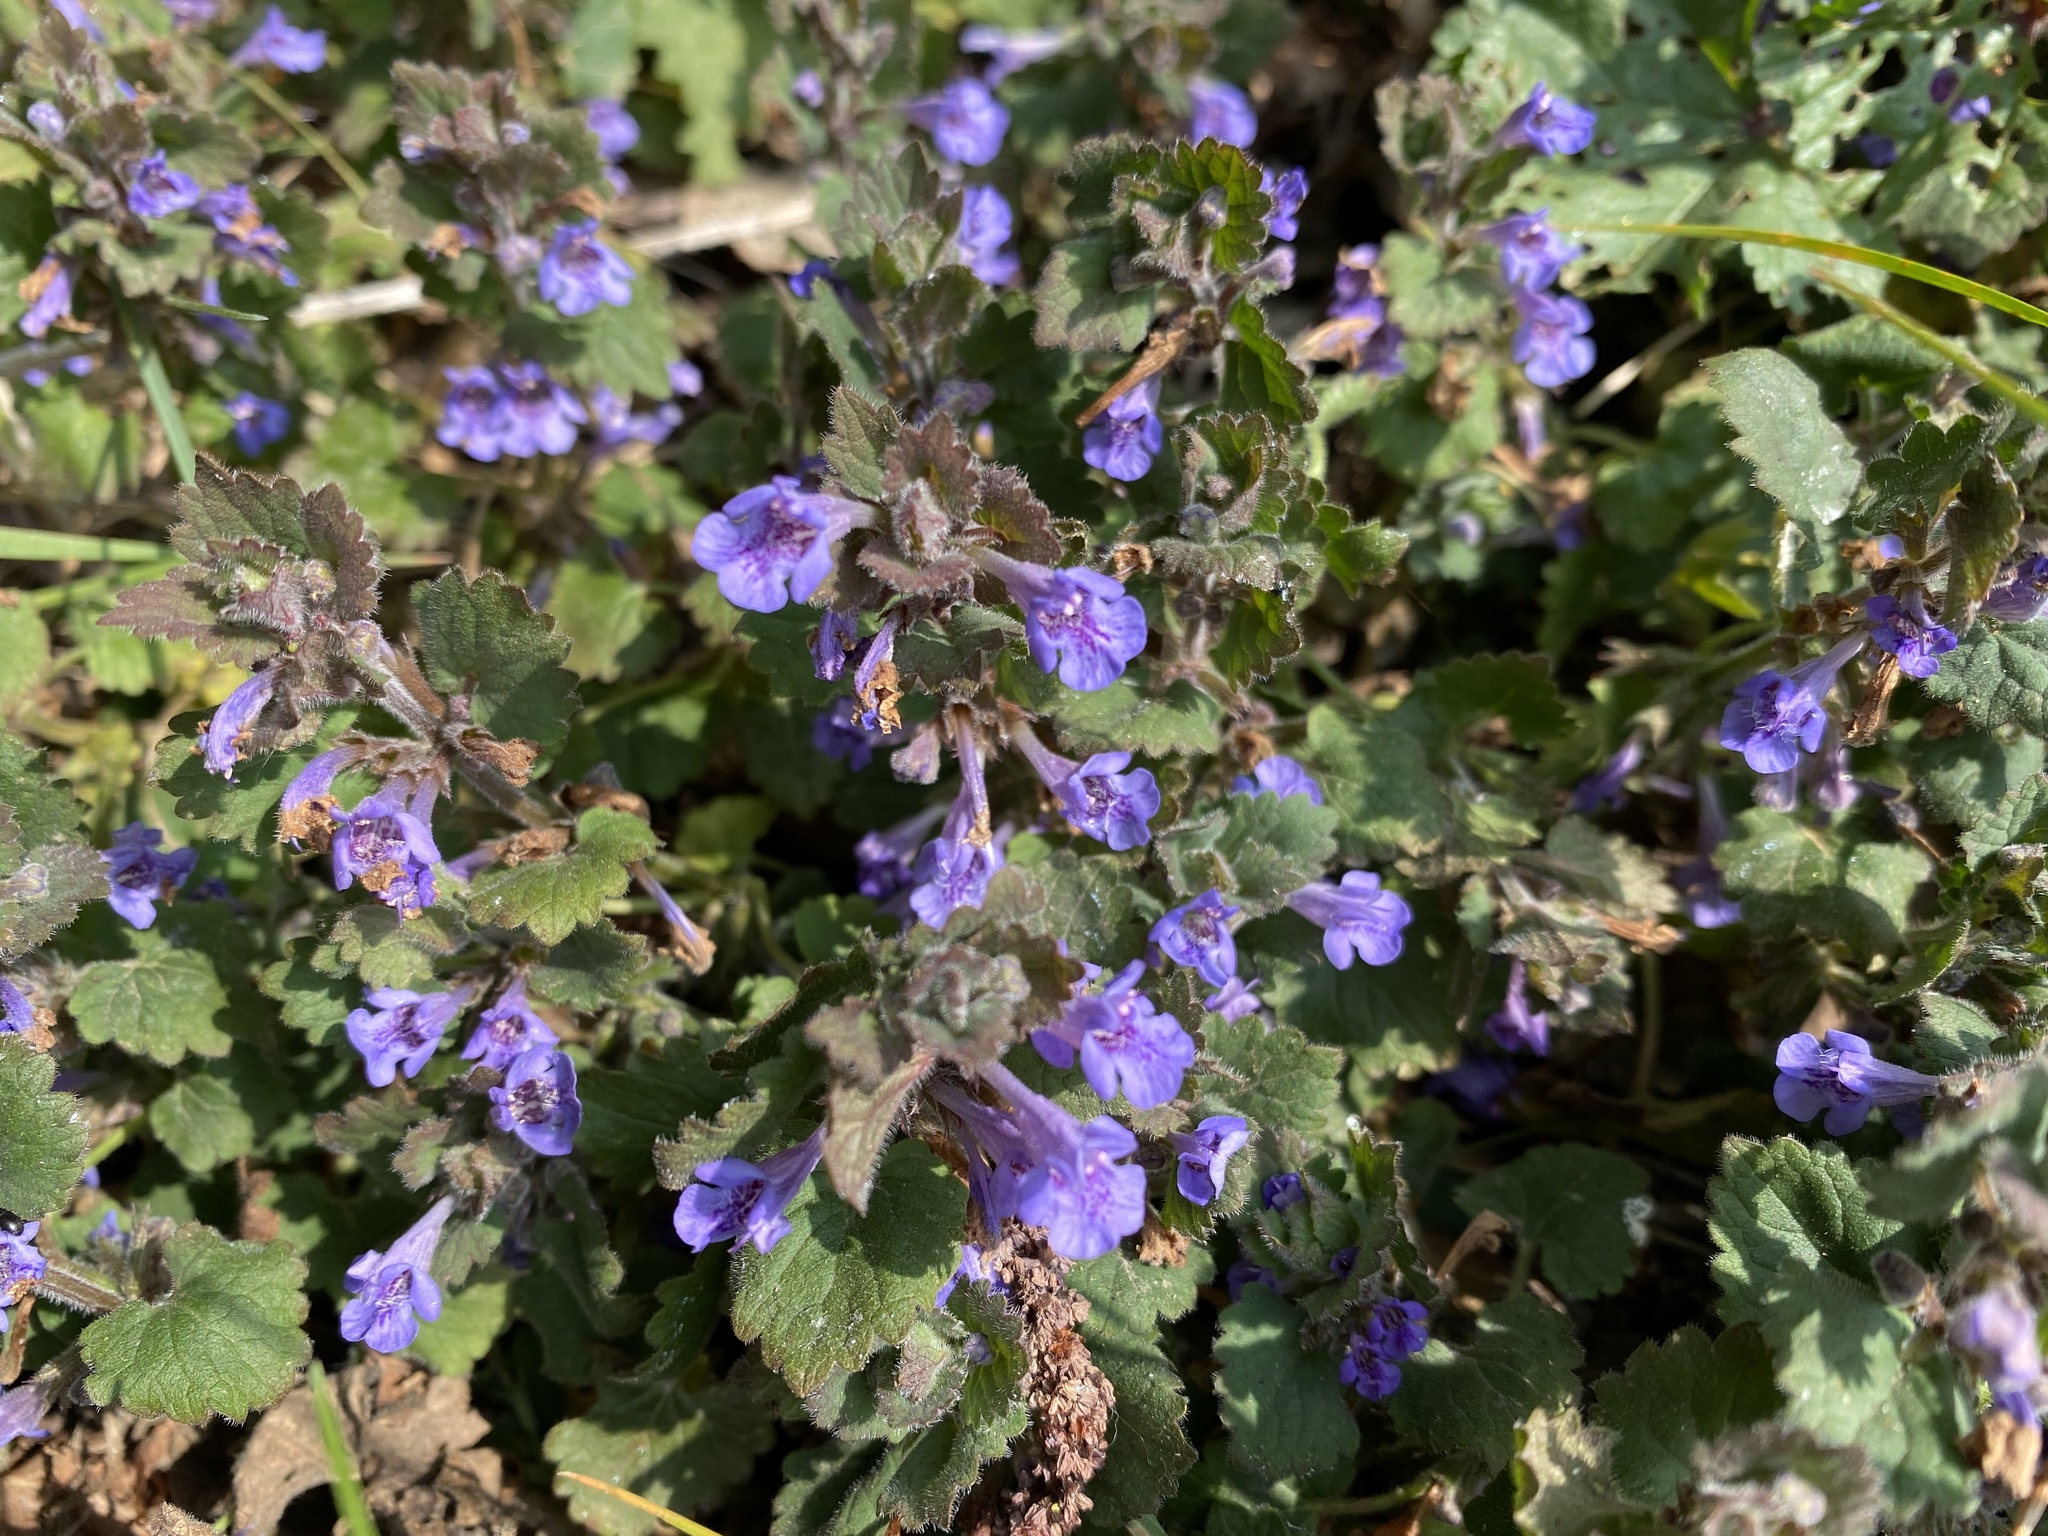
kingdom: Plantae
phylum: Tracheophyta
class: Magnoliopsida
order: Lamiales
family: Lamiaceae
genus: Glechoma
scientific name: Glechoma hederacea
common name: Ground ivy
